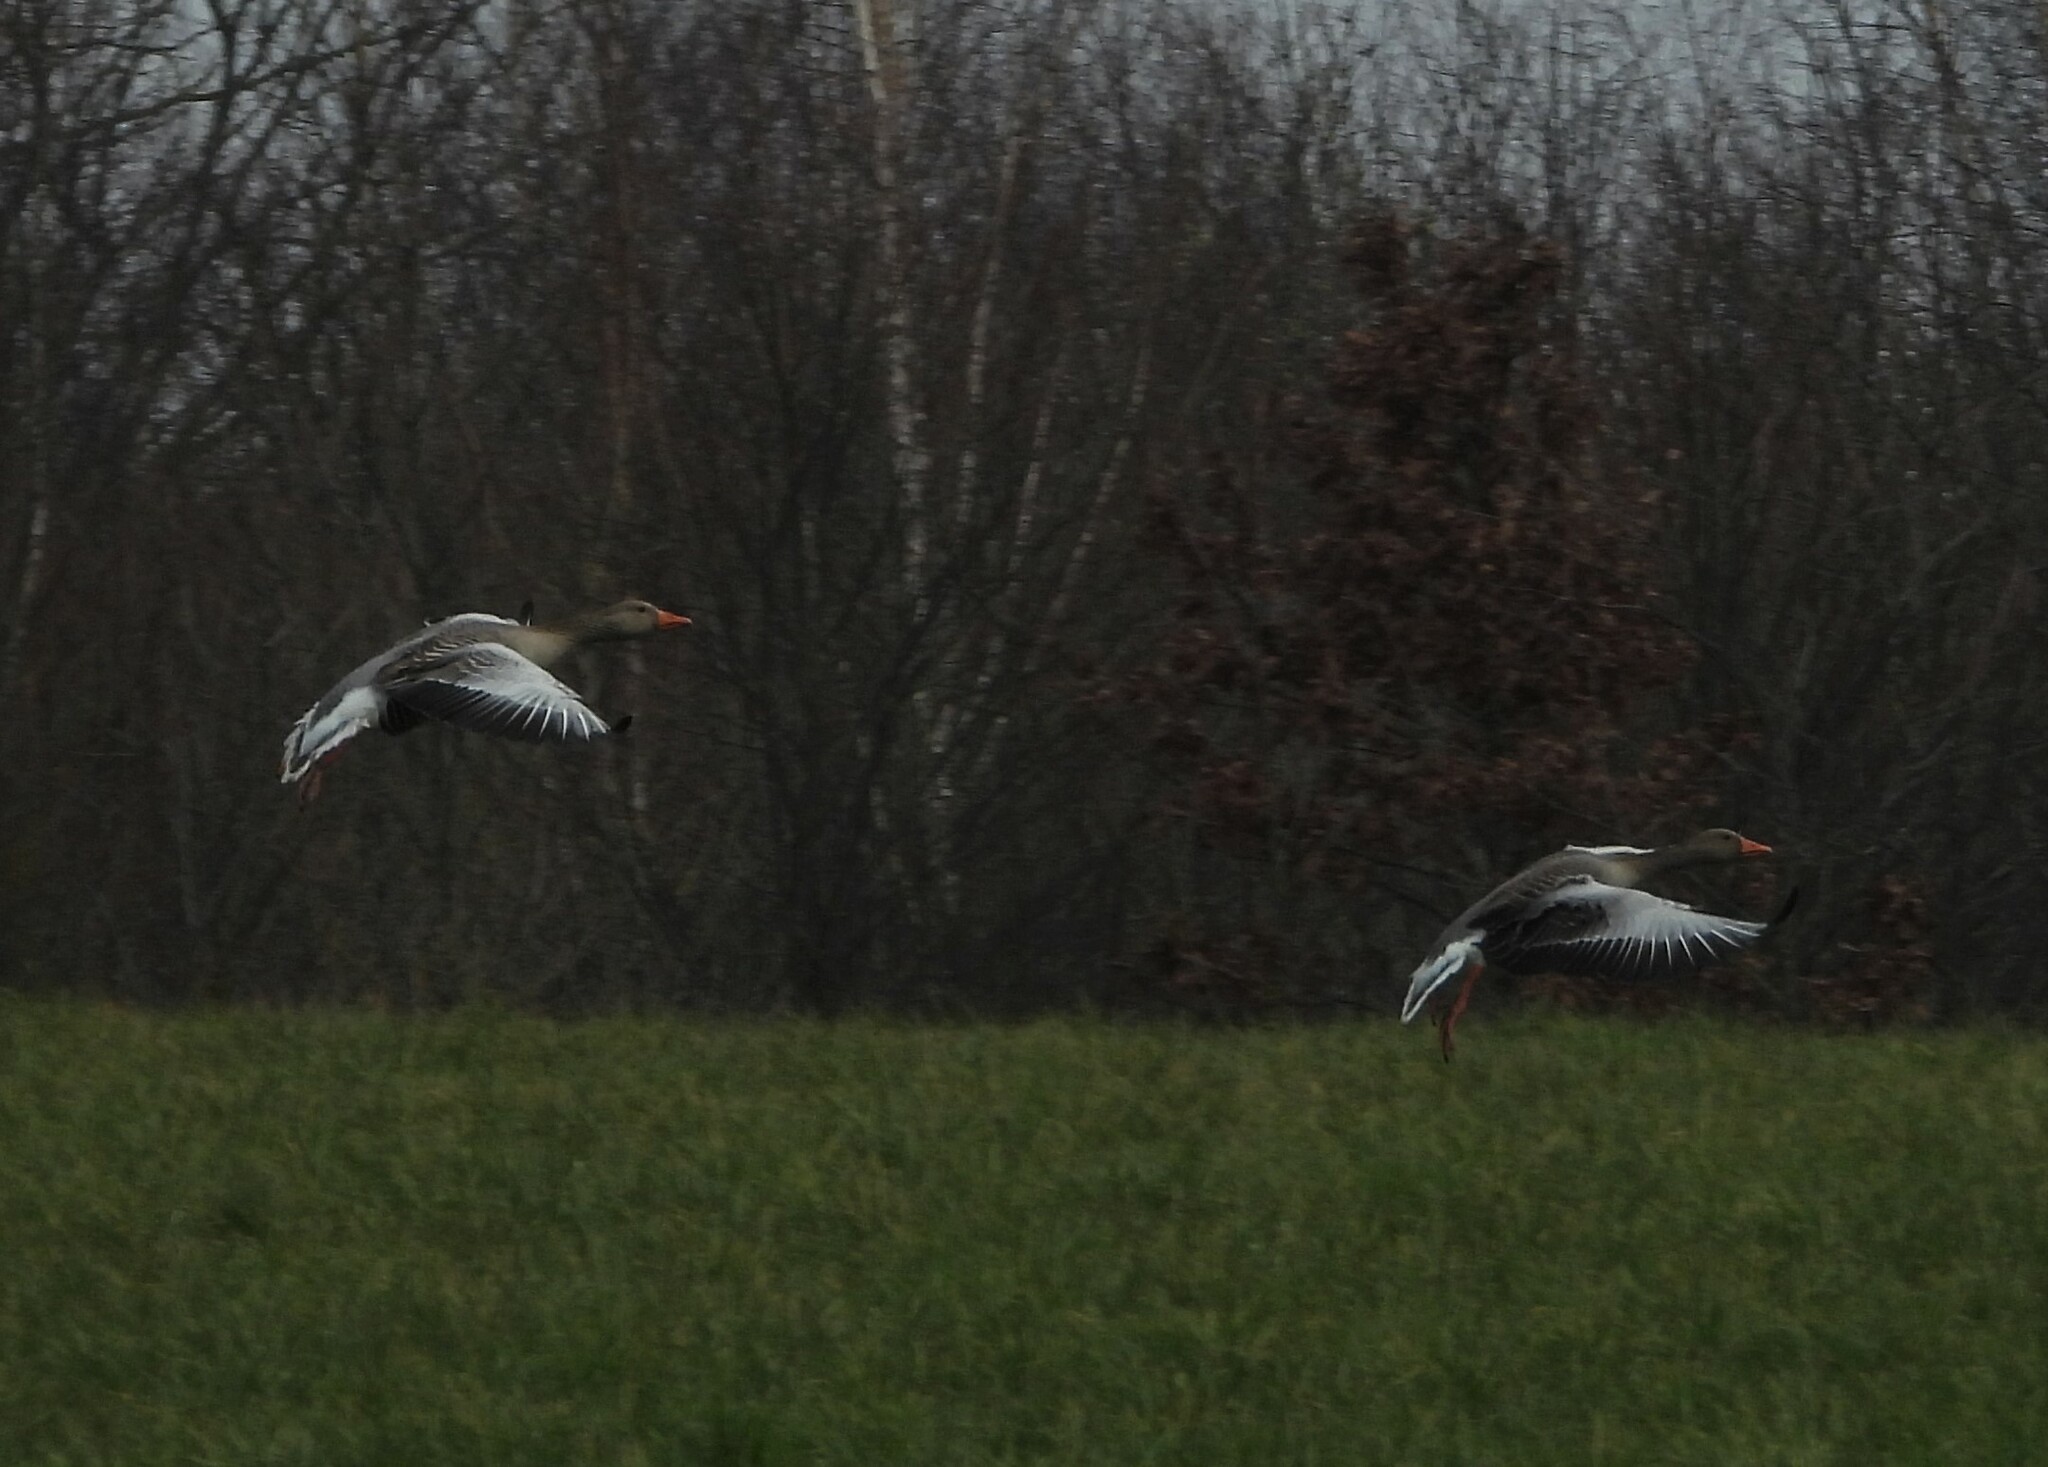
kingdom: Animalia
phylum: Chordata
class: Aves
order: Anseriformes
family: Anatidae
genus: Anser
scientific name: Anser anser
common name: Greylag goose
